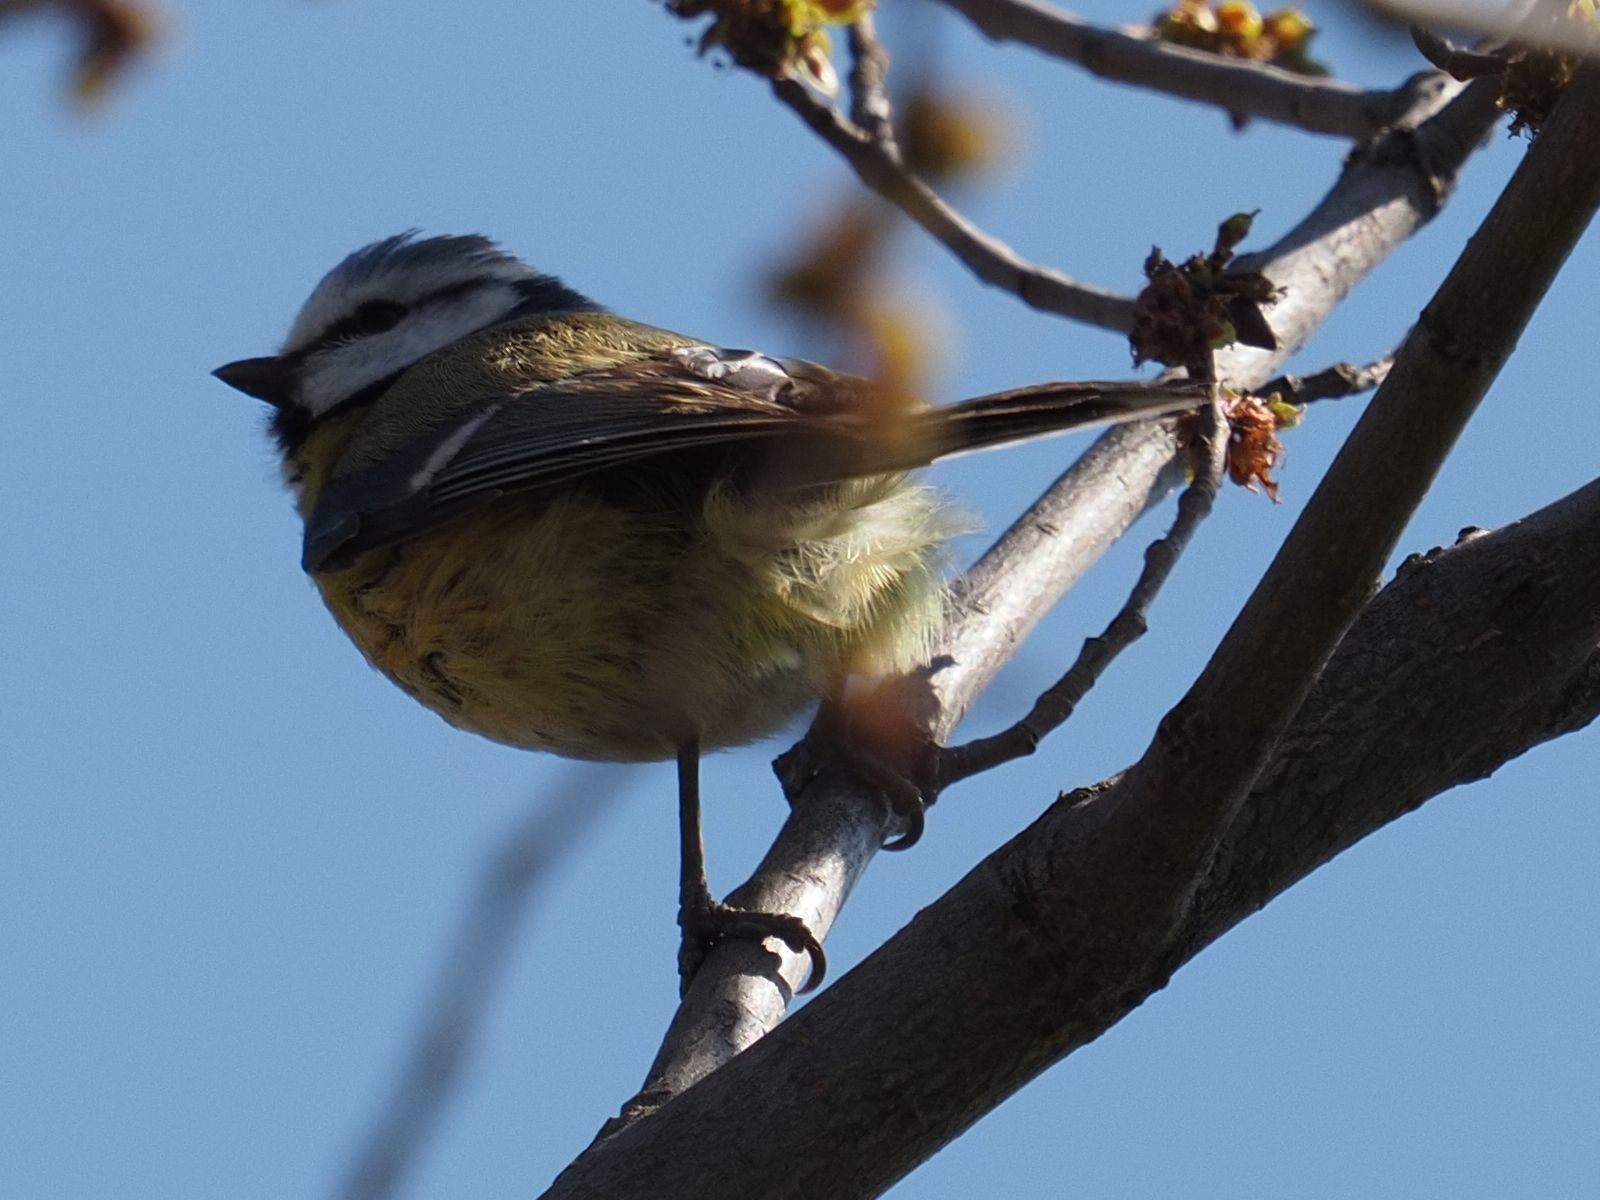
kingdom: Animalia
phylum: Chordata
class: Aves
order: Passeriformes
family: Paridae
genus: Cyanistes
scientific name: Cyanistes caeruleus
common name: Eurasian blue tit
